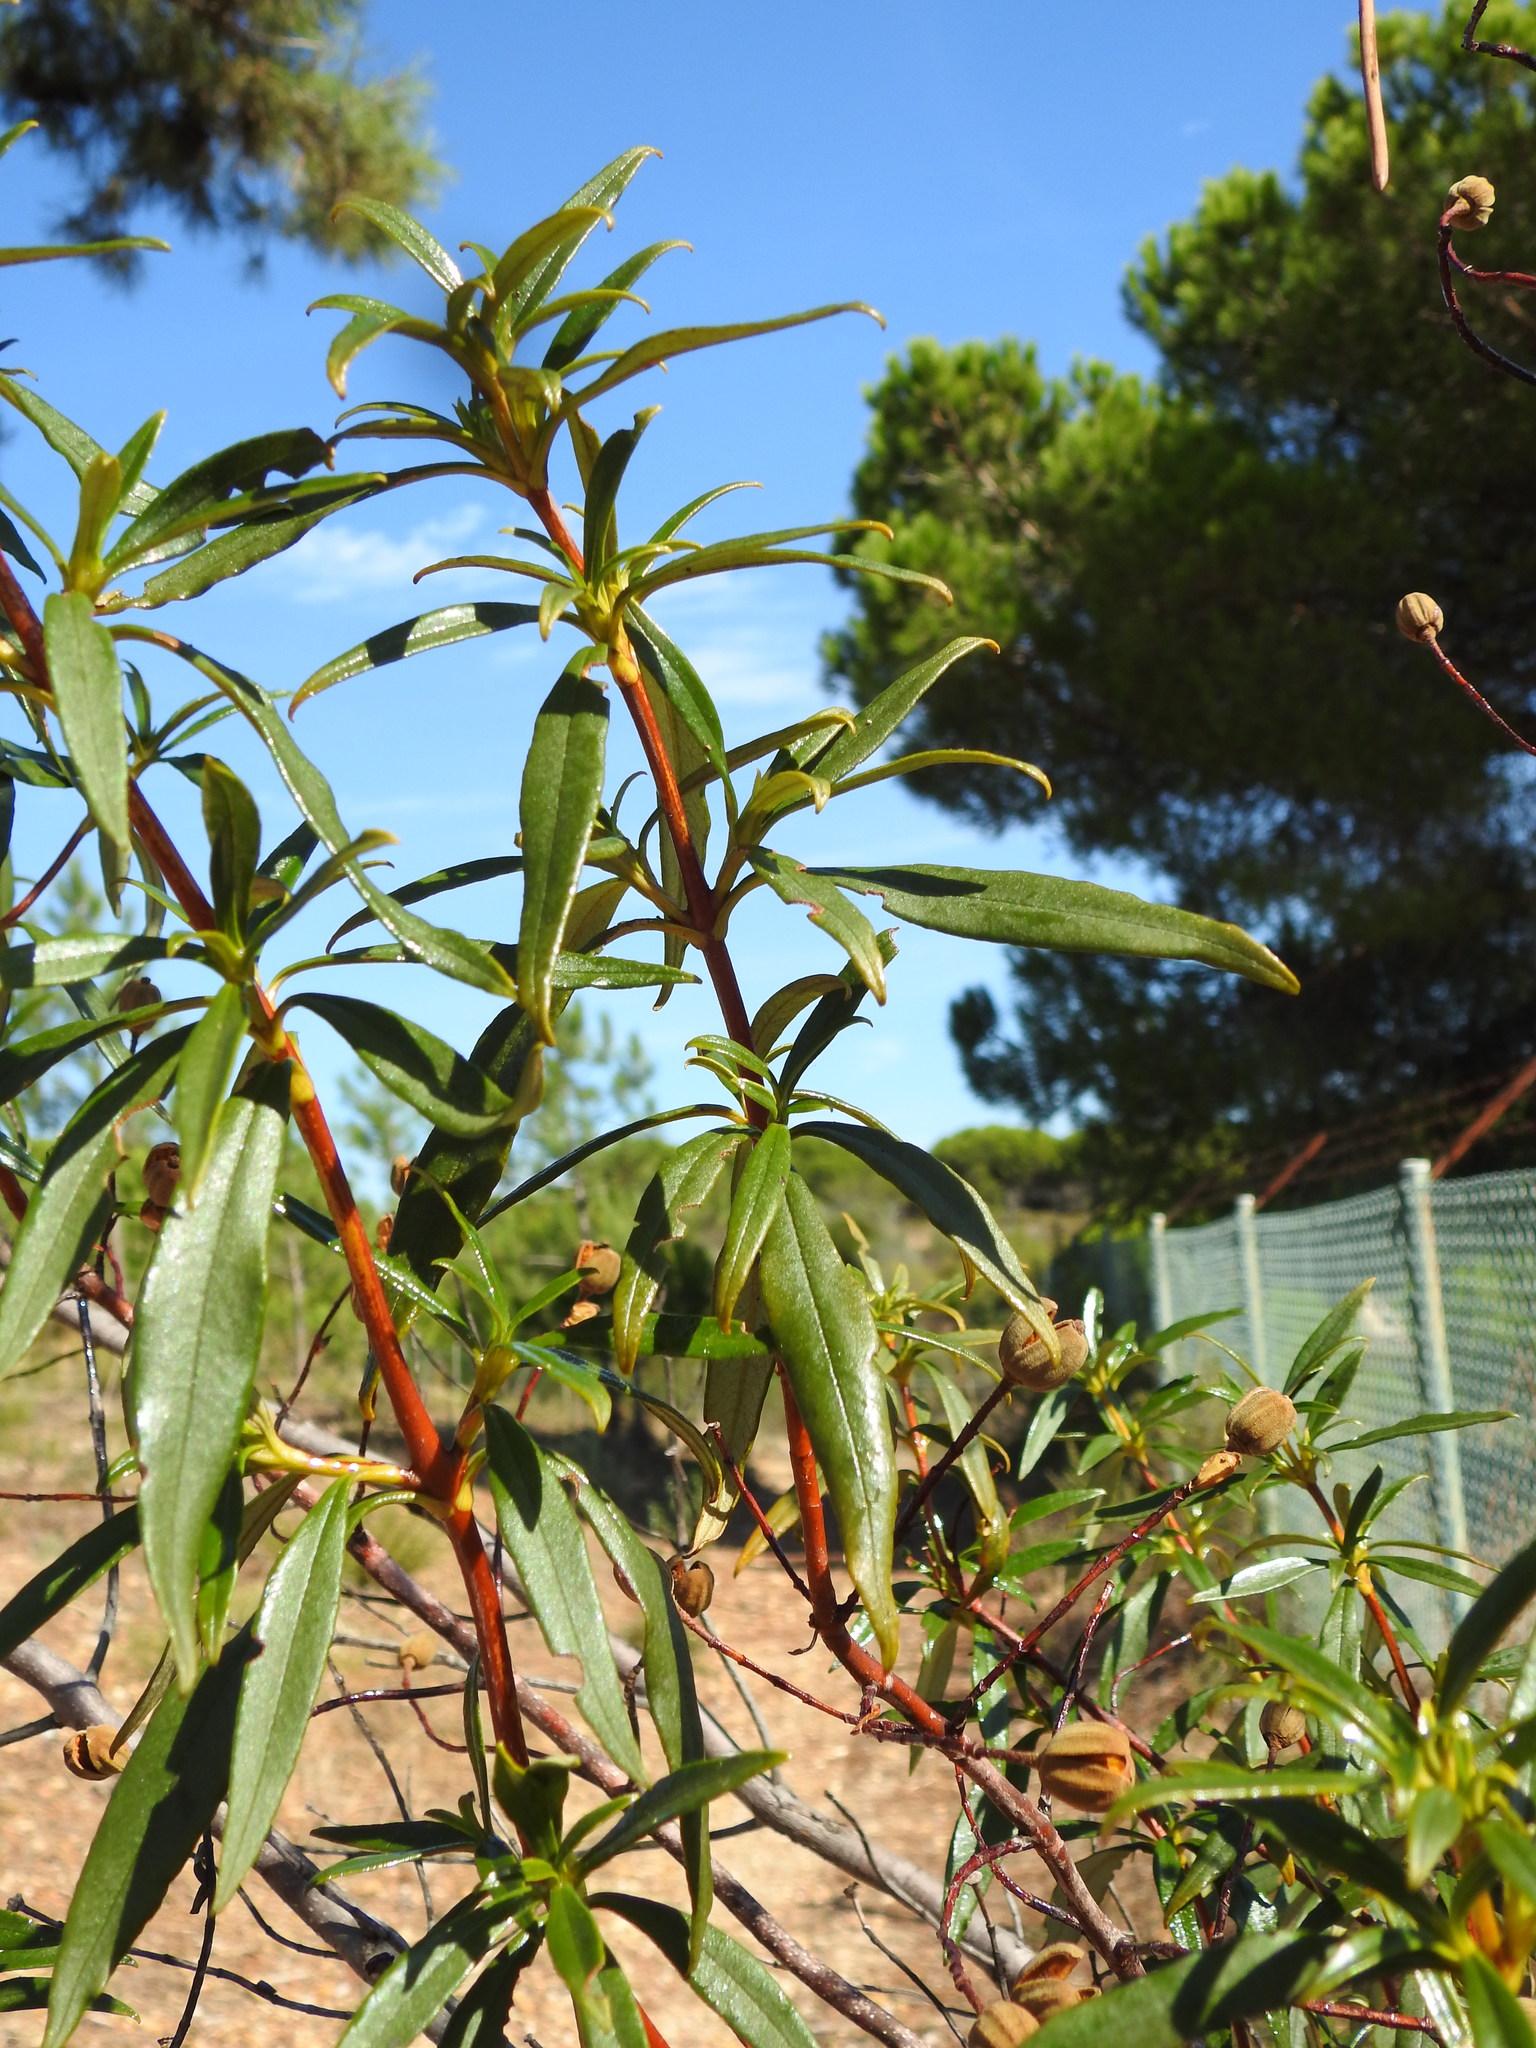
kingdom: Plantae
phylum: Tracheophyta
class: Magnoliopsida
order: Malvales
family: Cistaceae
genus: Cistus
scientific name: Cistus ladanifer
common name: Common gum cistus
